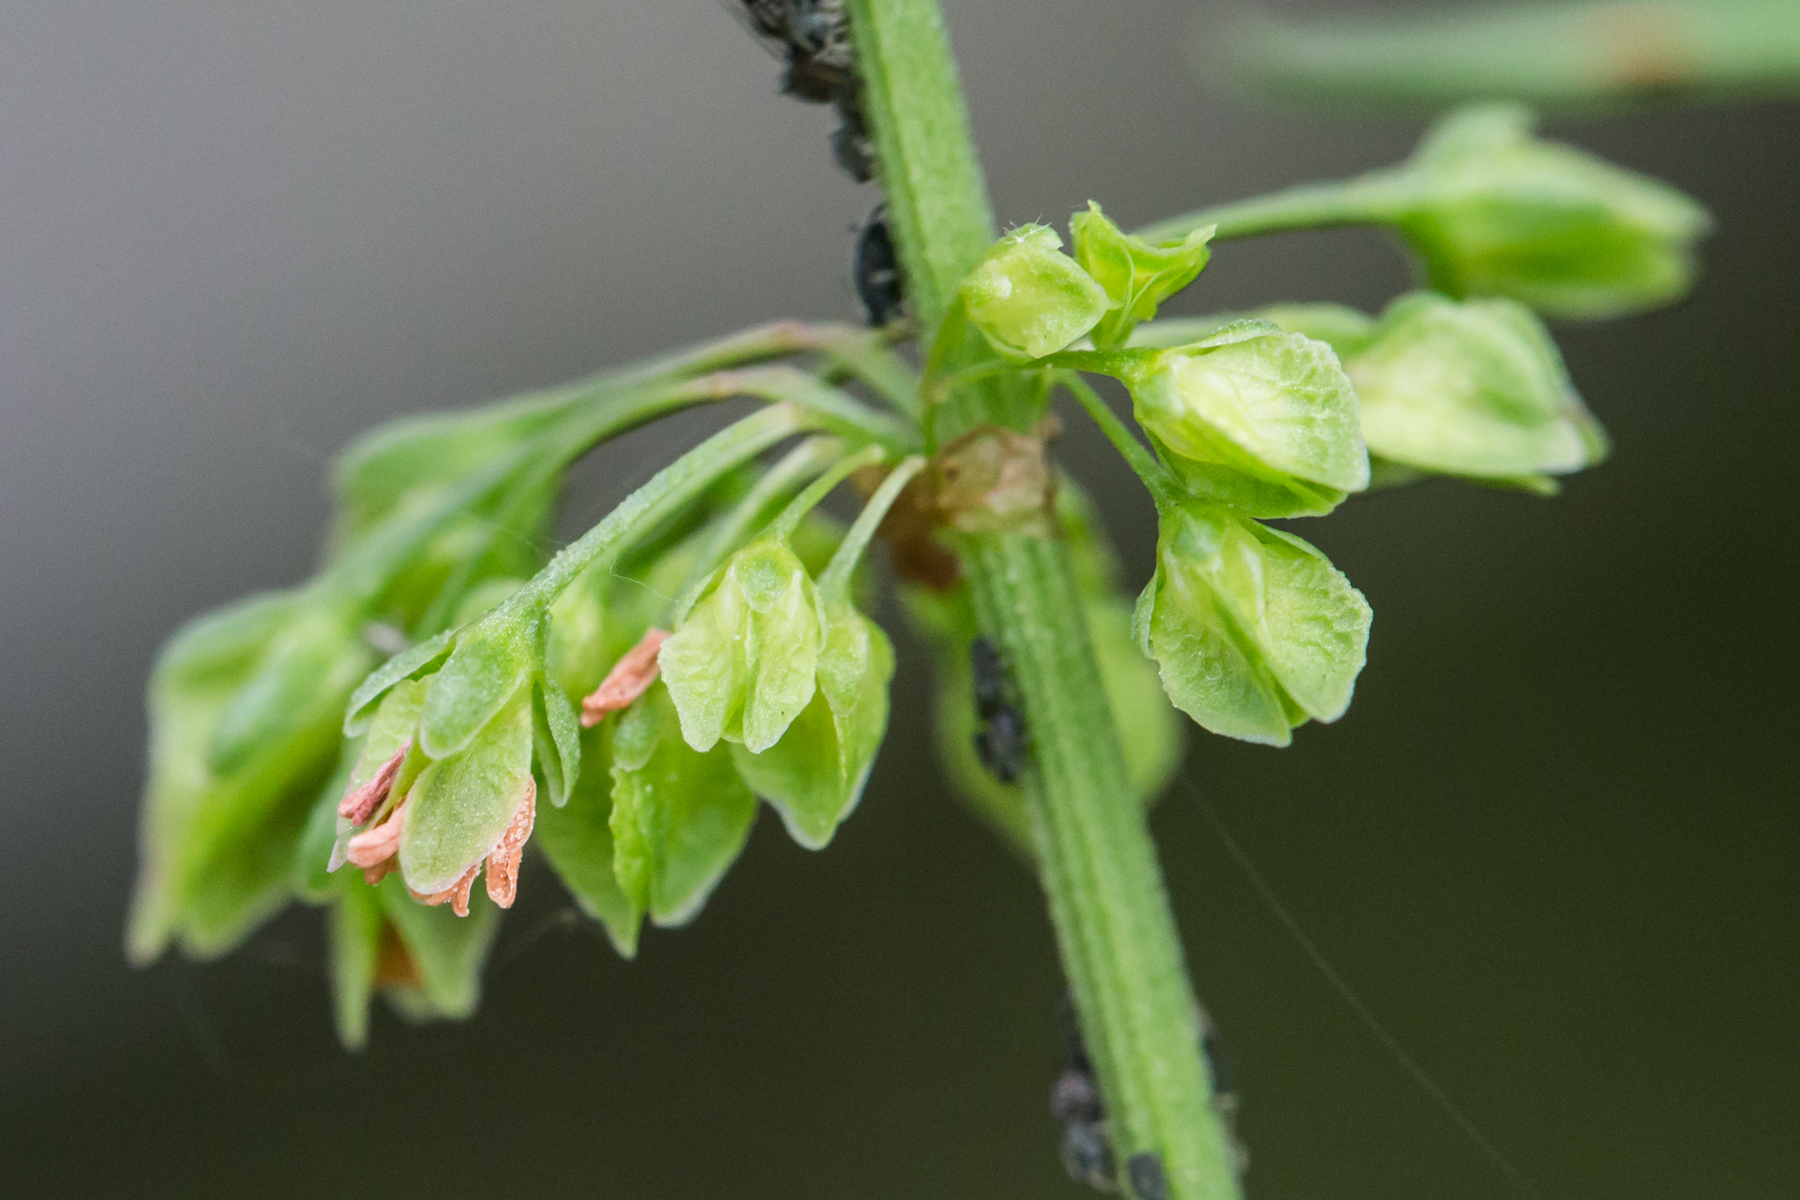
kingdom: Plantae
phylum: Tracheophyta
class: Magnoliopsida
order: Caryophyllales
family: Polygonaceae
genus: Rumex
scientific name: Rumex crispus
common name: Curled dock
